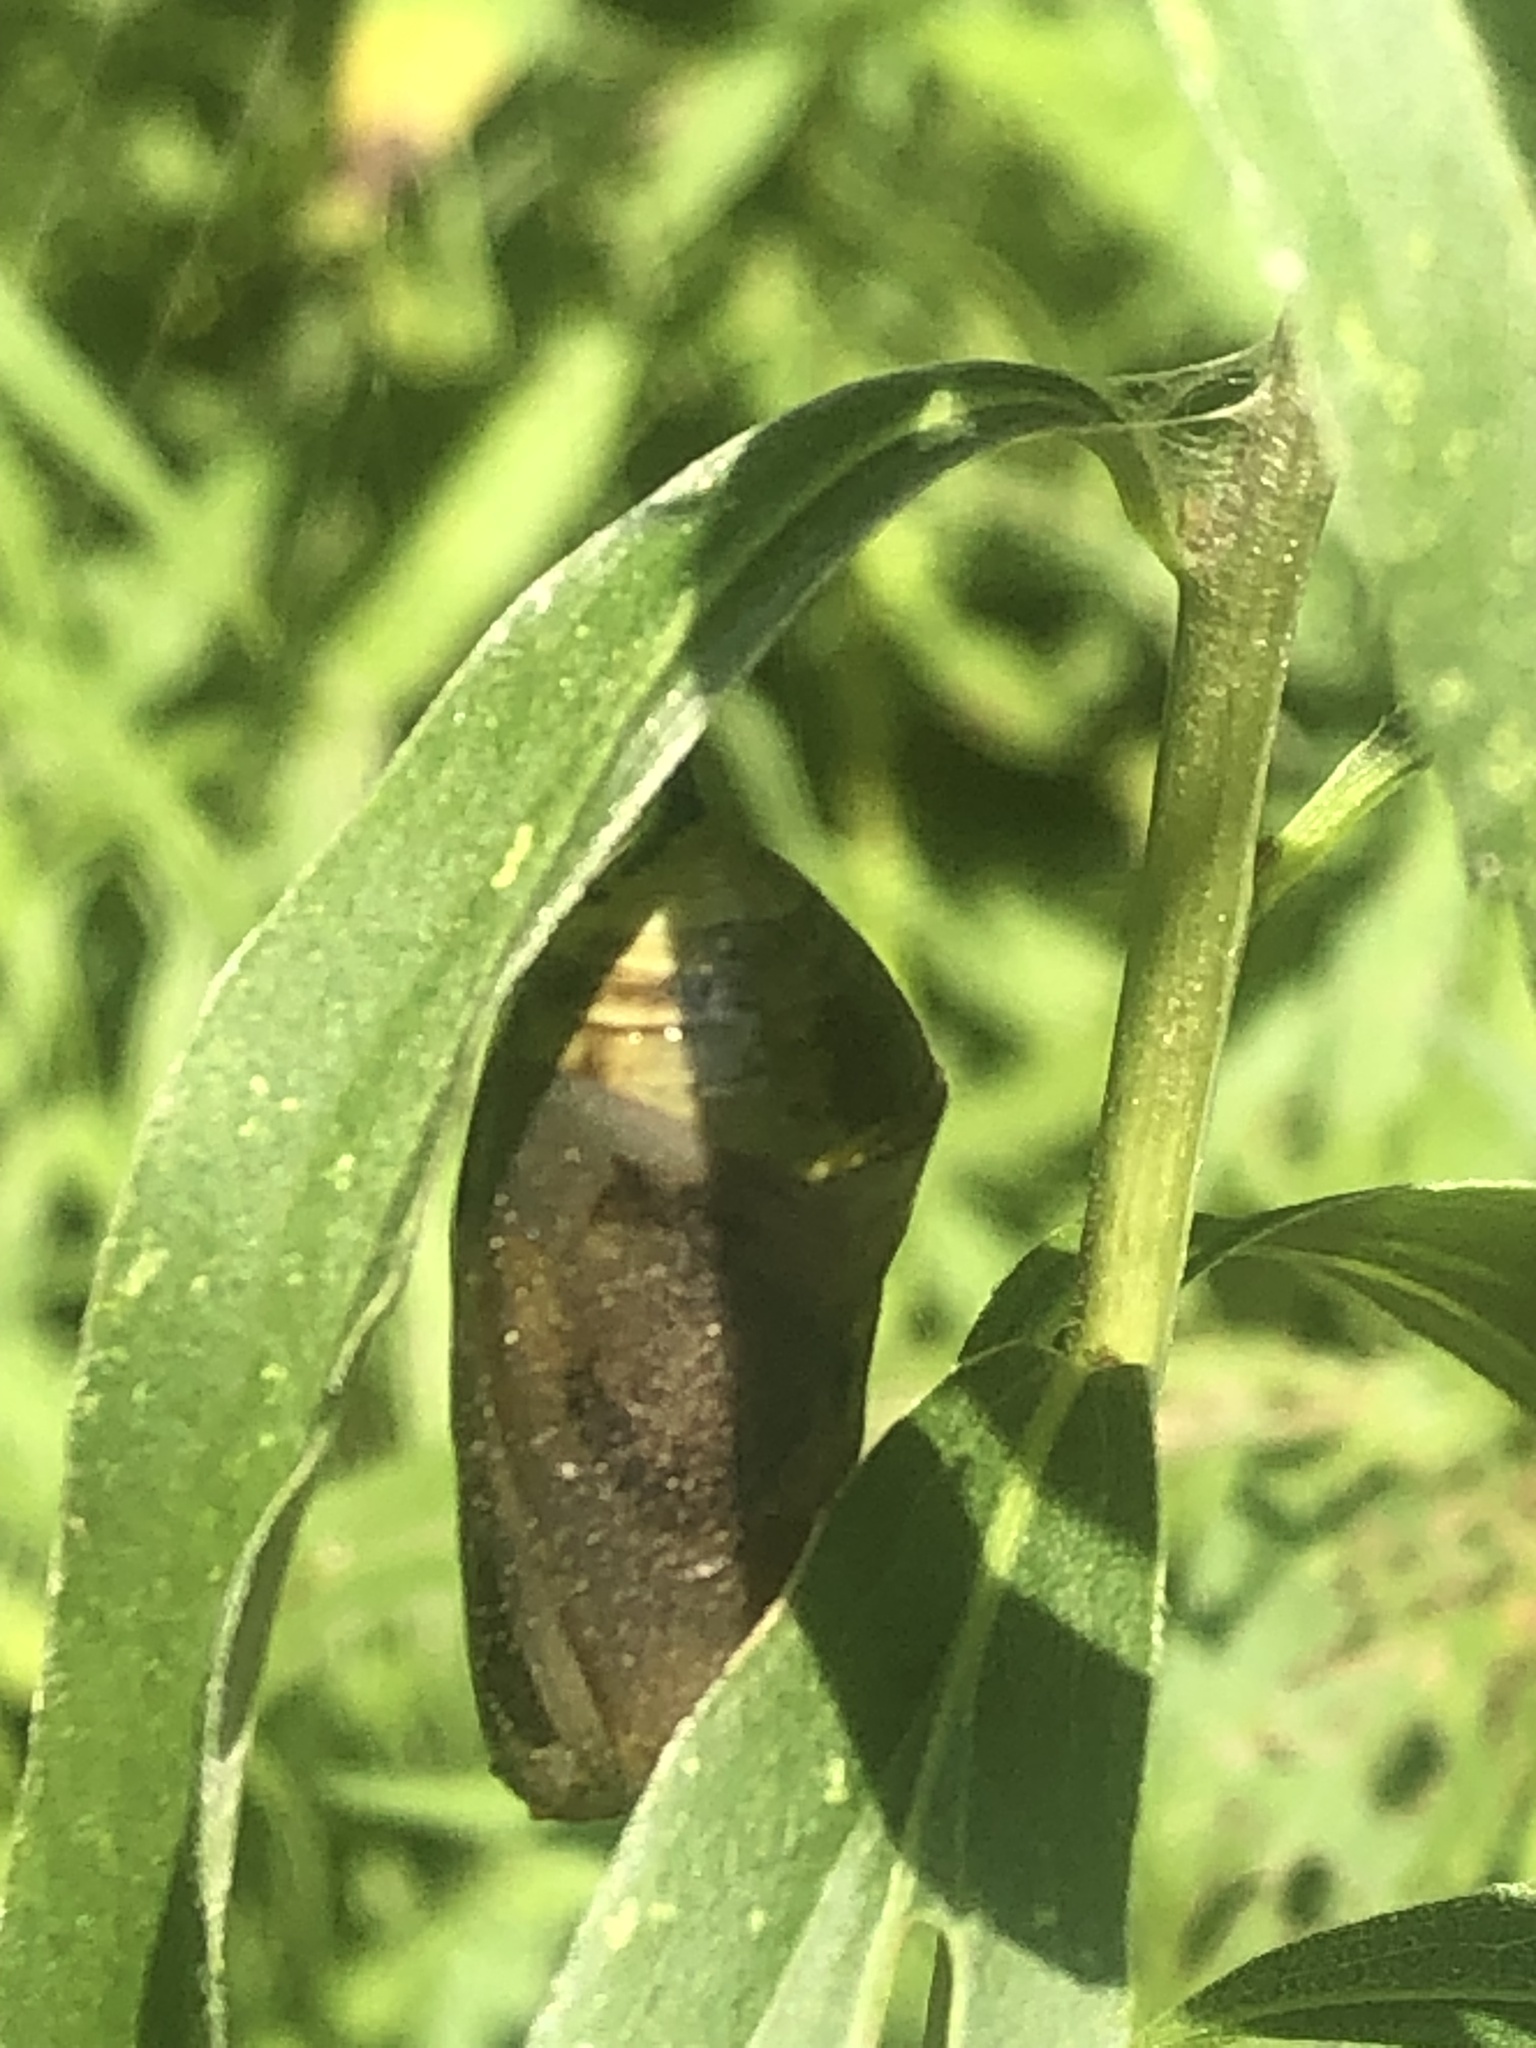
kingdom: Animalia
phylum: Arthropoda
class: Insecta
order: Lepidoptera
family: Nymphalidae
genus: Danaus
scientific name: Danaus plexippus
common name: Monarch
